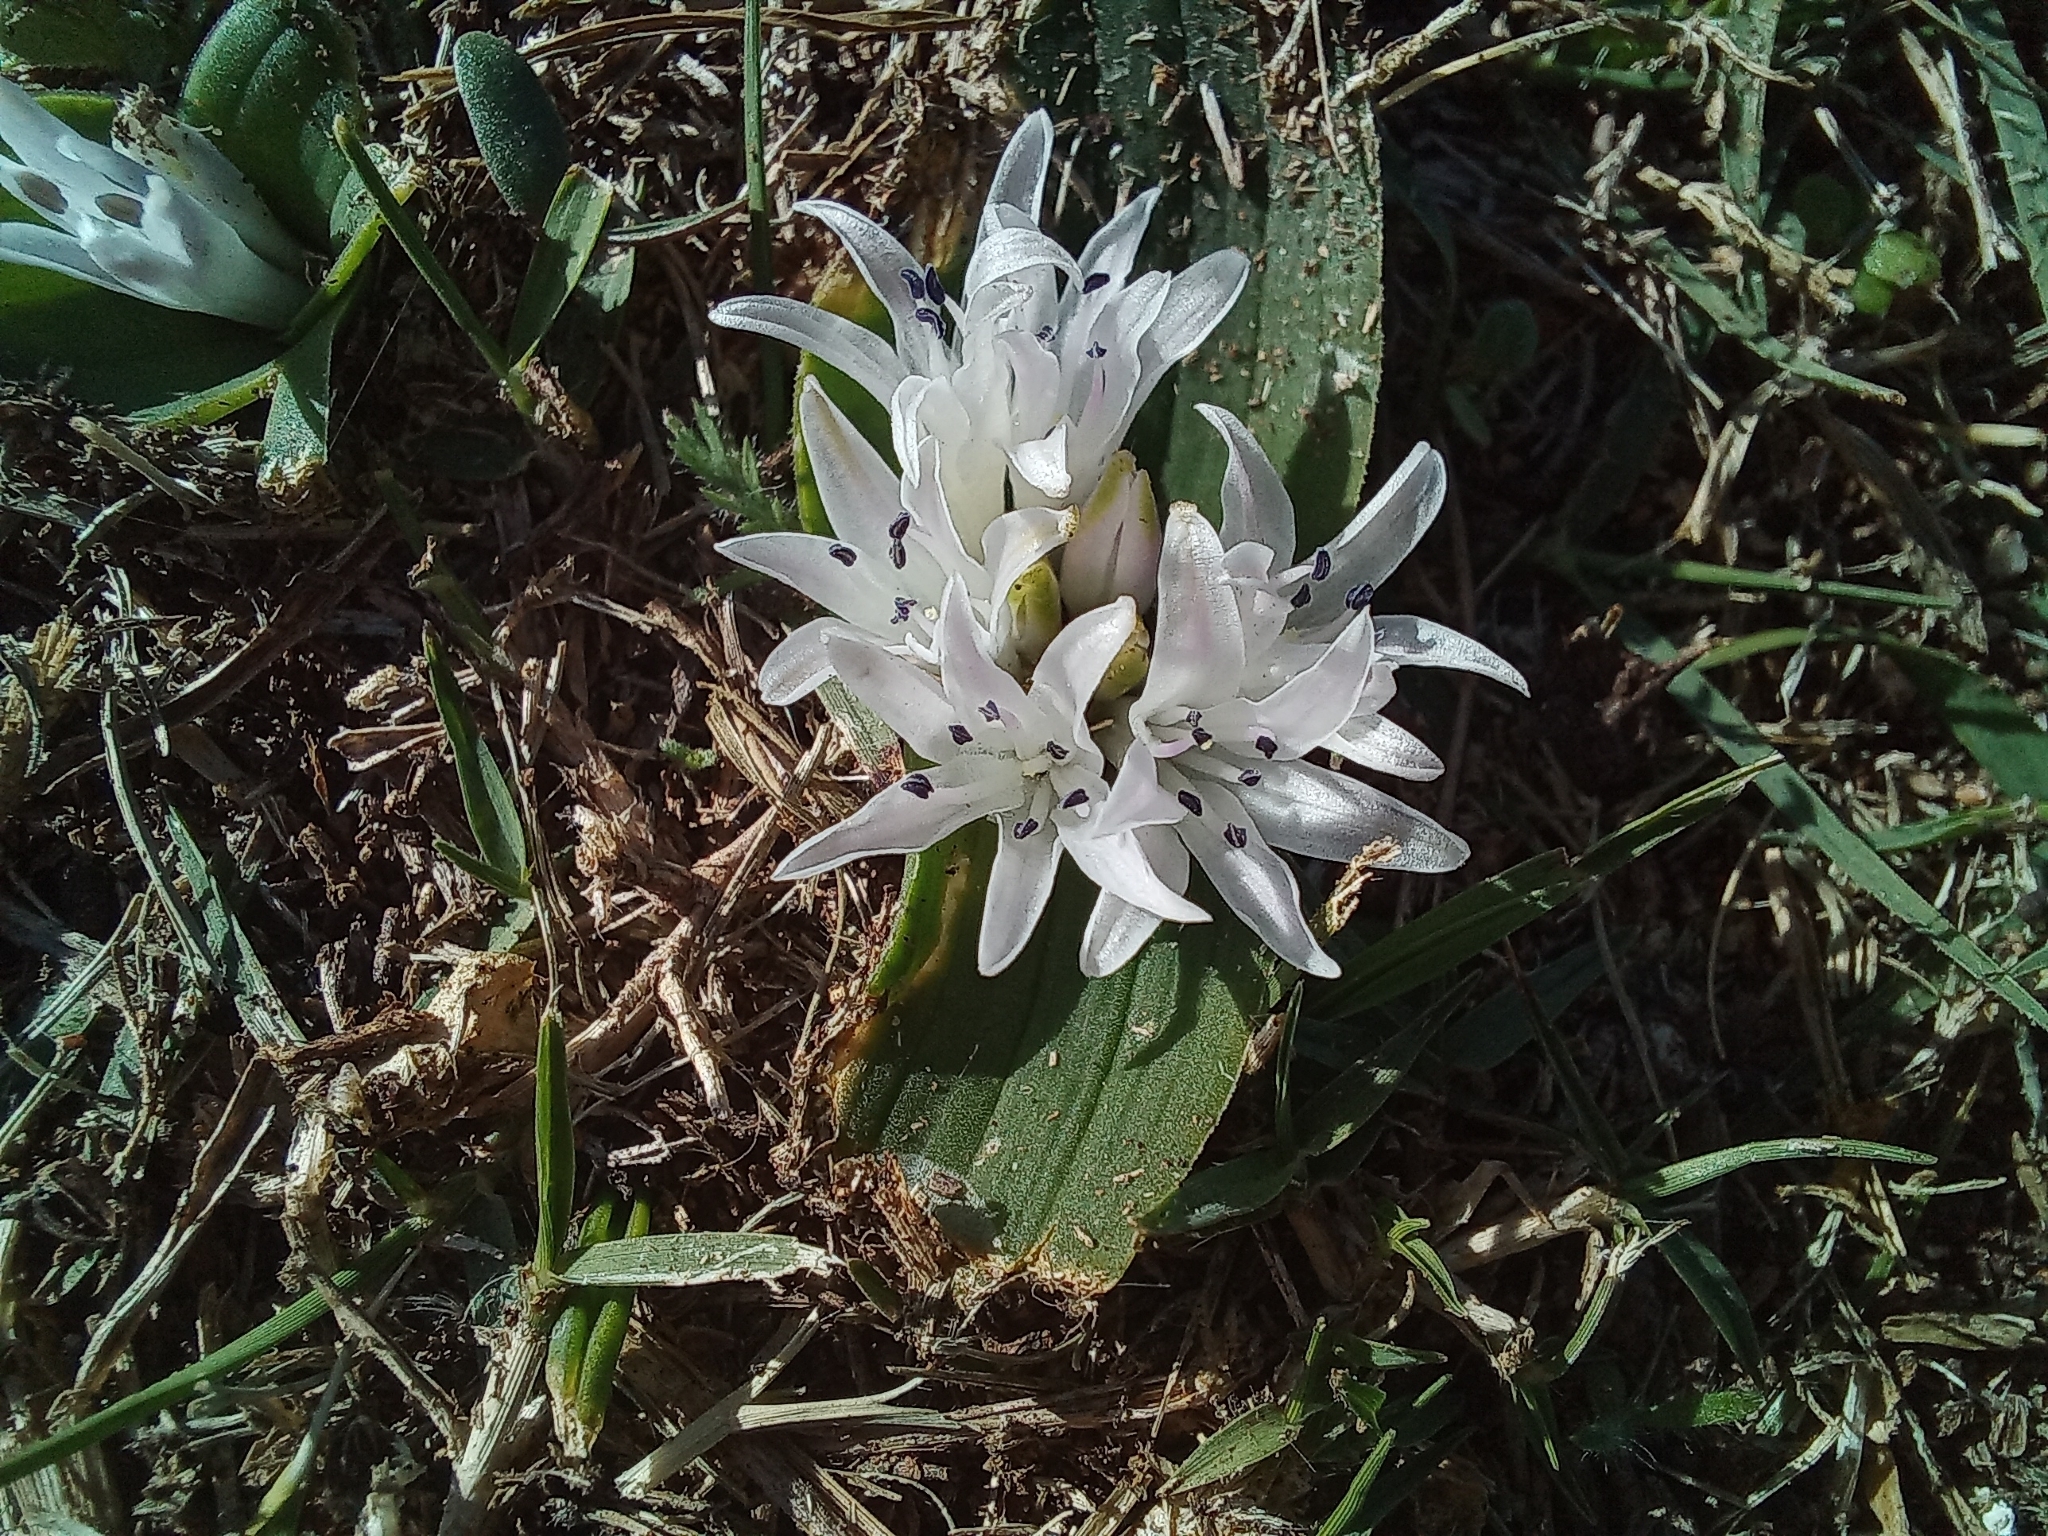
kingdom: Plantae
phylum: Tracheophyta
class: Liliopsida
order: Asparagales
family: Asparagaceae
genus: Lachenalia
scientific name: Lachenalia ensifolia
